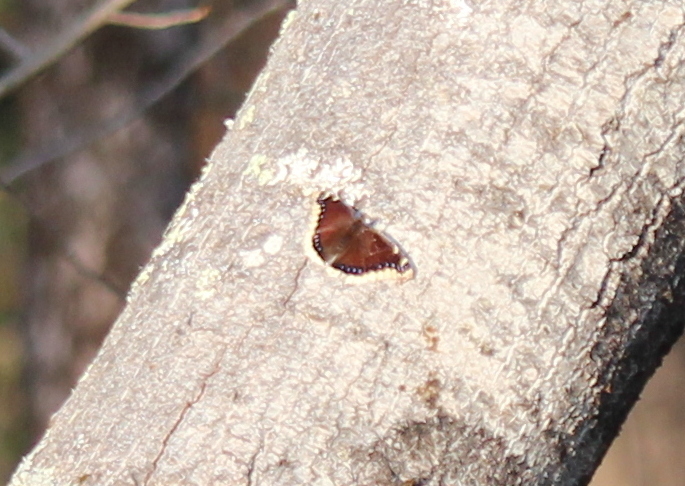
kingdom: Animalia
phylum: Arthropoda
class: Insecta
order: Lepidoptera
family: Nymphalidae
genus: Nymphalis
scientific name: Nymphalis antiopa
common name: Camberwell beauty
